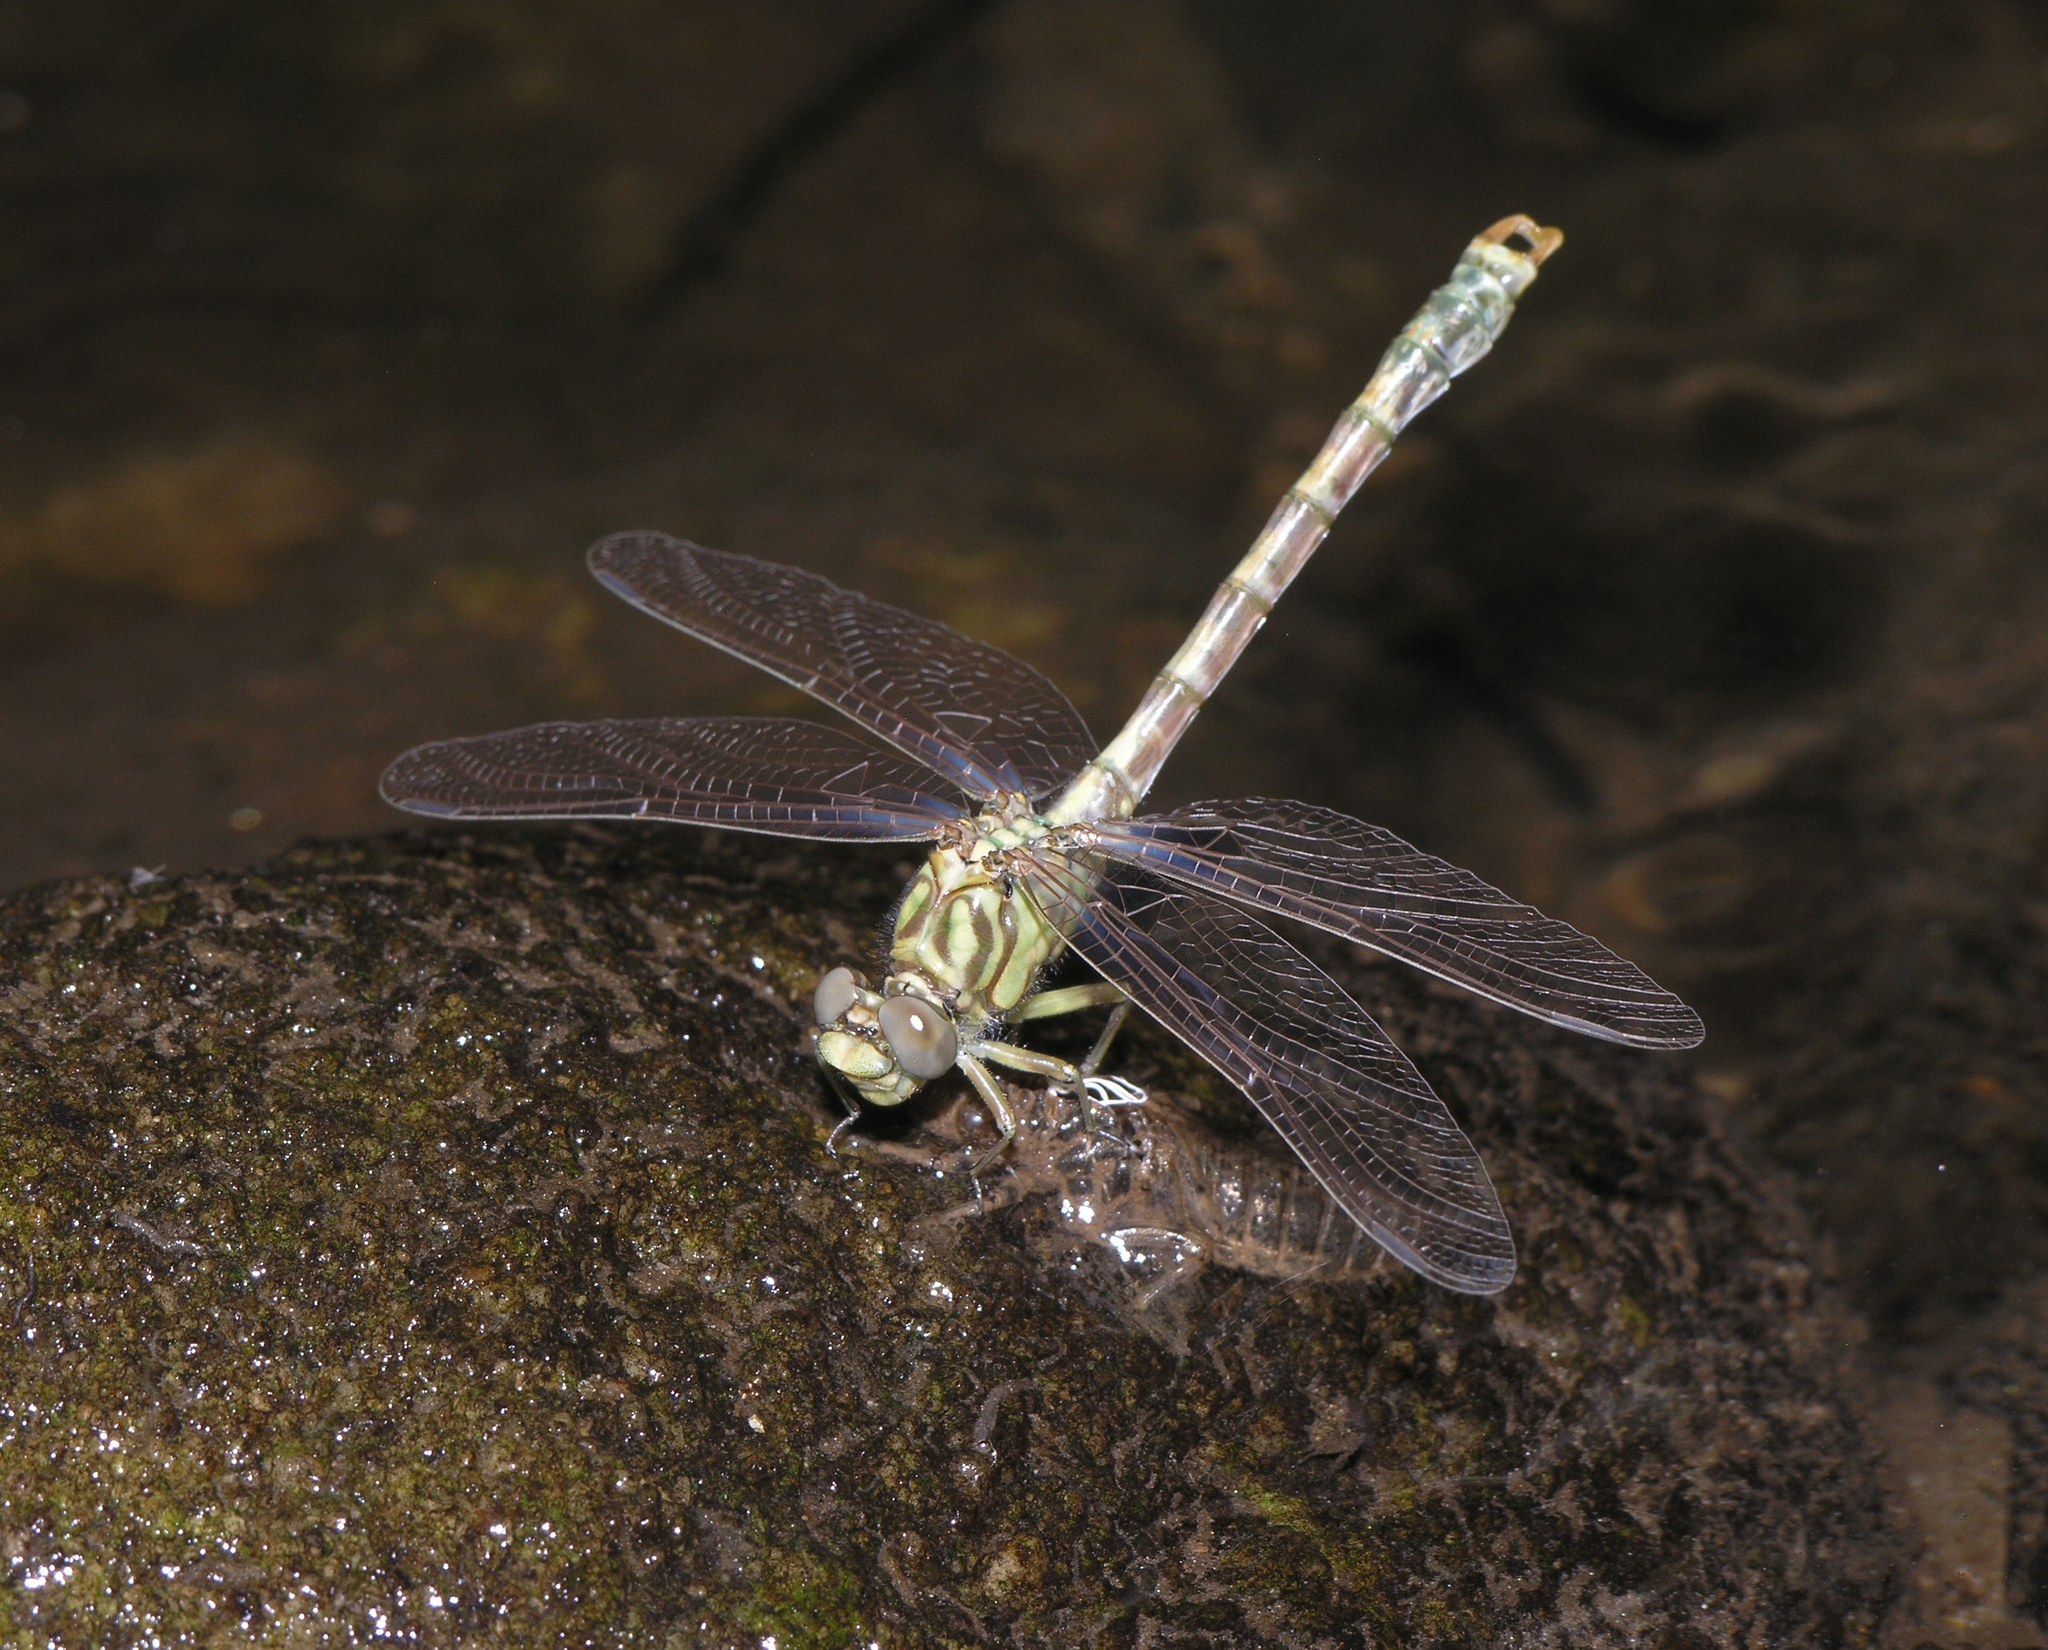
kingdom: Animalia
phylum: Arthropoda
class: Insecta
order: Odonata
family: Gomphidae
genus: Onychogomphus
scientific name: Onychogomphus forcipatus
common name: Small pincertail
